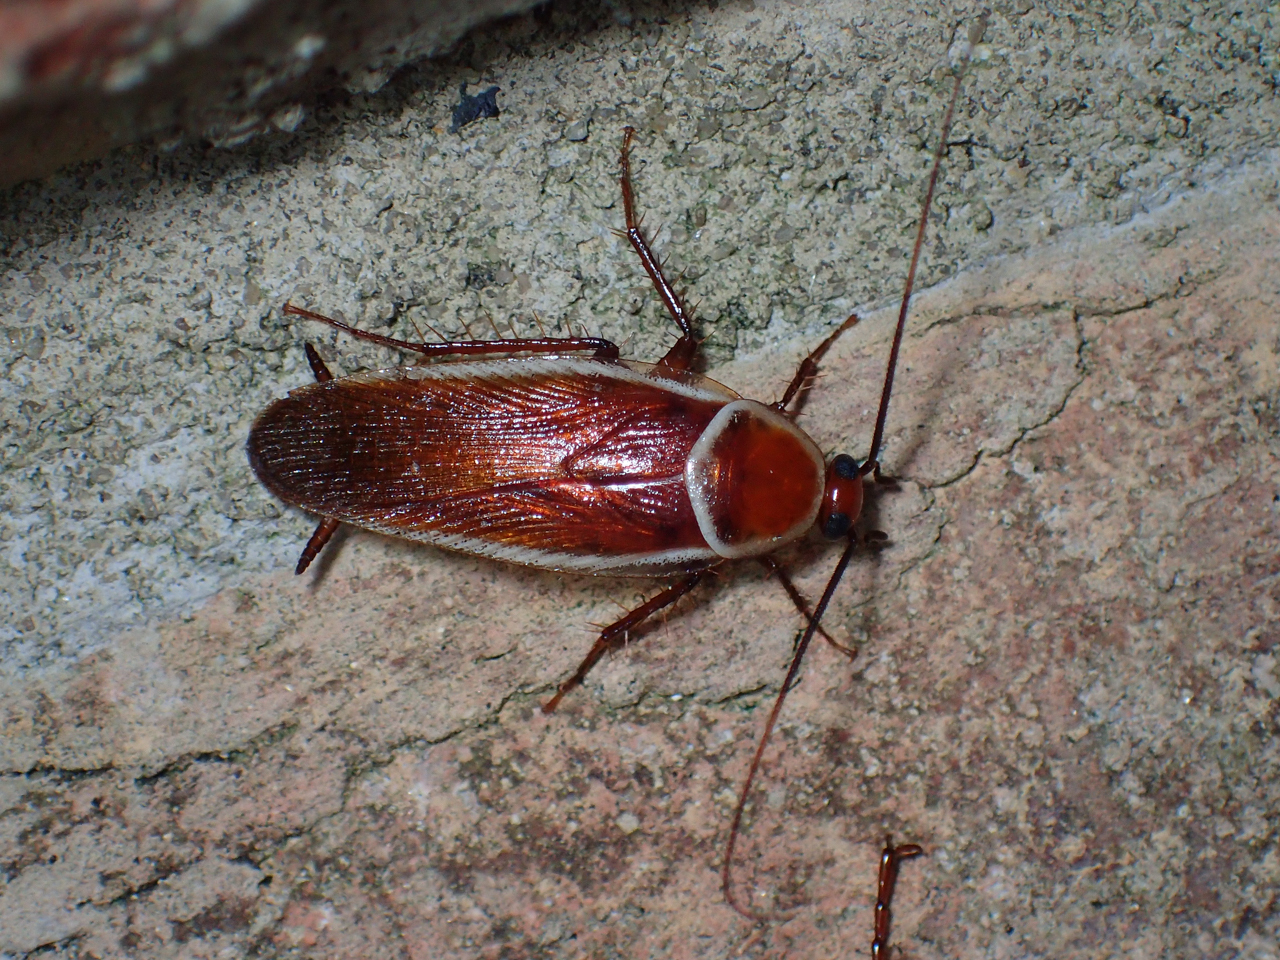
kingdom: Animalia
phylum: Arthropoda
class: Insecta
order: Blattodea
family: Ectobiidae
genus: Pseudomops
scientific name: Pseudomops septentrionalis
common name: Pale-bordered field cockroach
